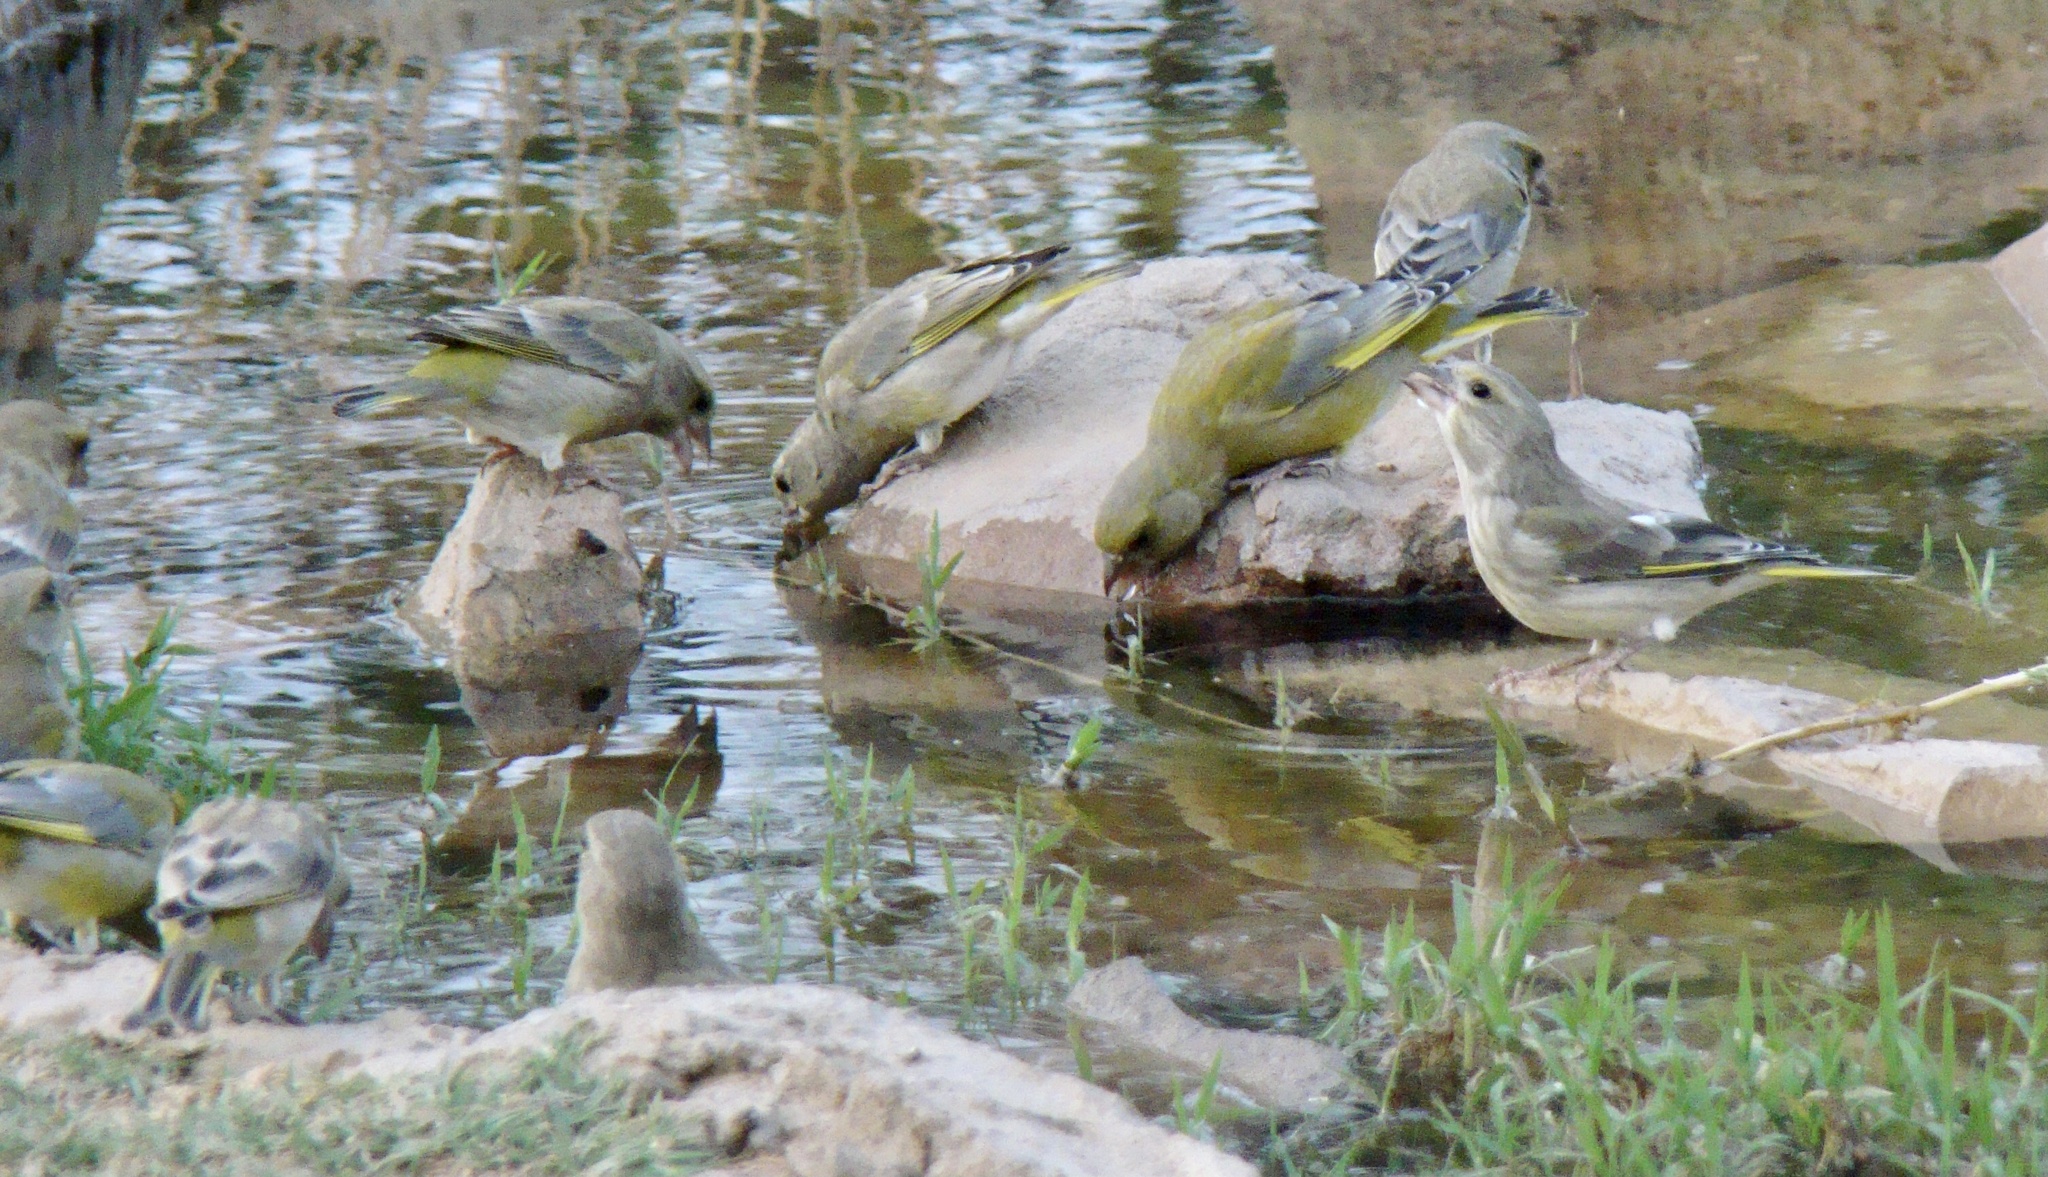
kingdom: Plantae
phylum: Tracheophyta
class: Liliopsida
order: Poales
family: Poaceae
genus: Chloris
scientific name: Chloris chloris
